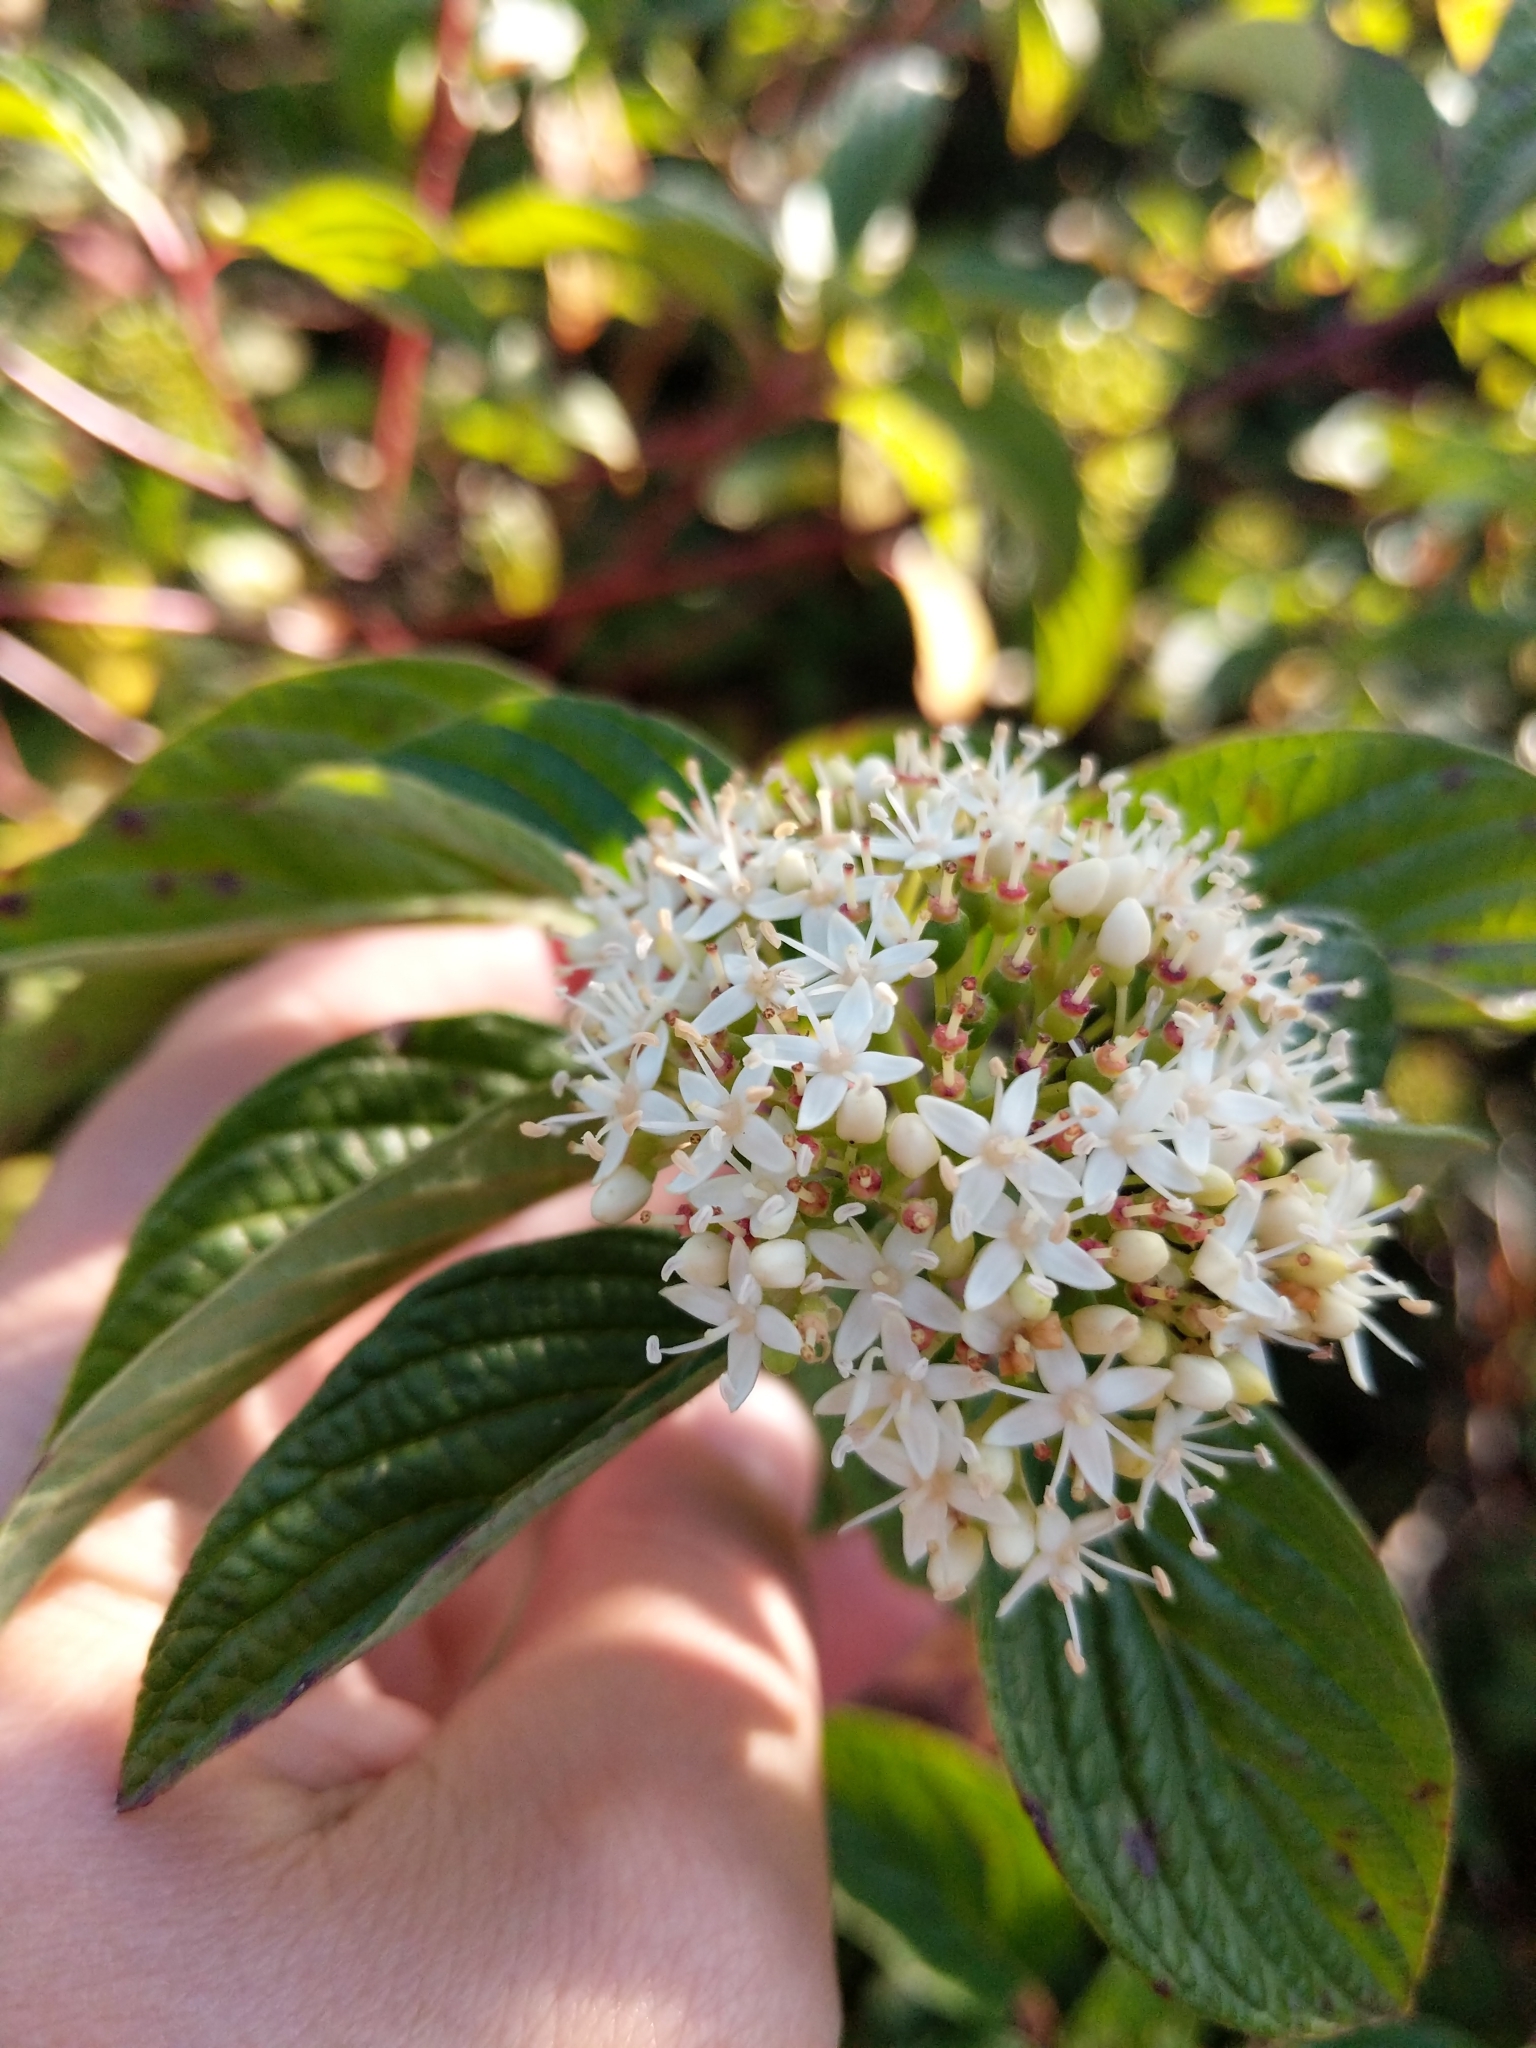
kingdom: Plantae
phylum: Tracheophyta
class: Magnoliopsida
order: Cornales
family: Cornaceae
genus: Cornus
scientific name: Cornus sericea
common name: Red-osier dogwood
